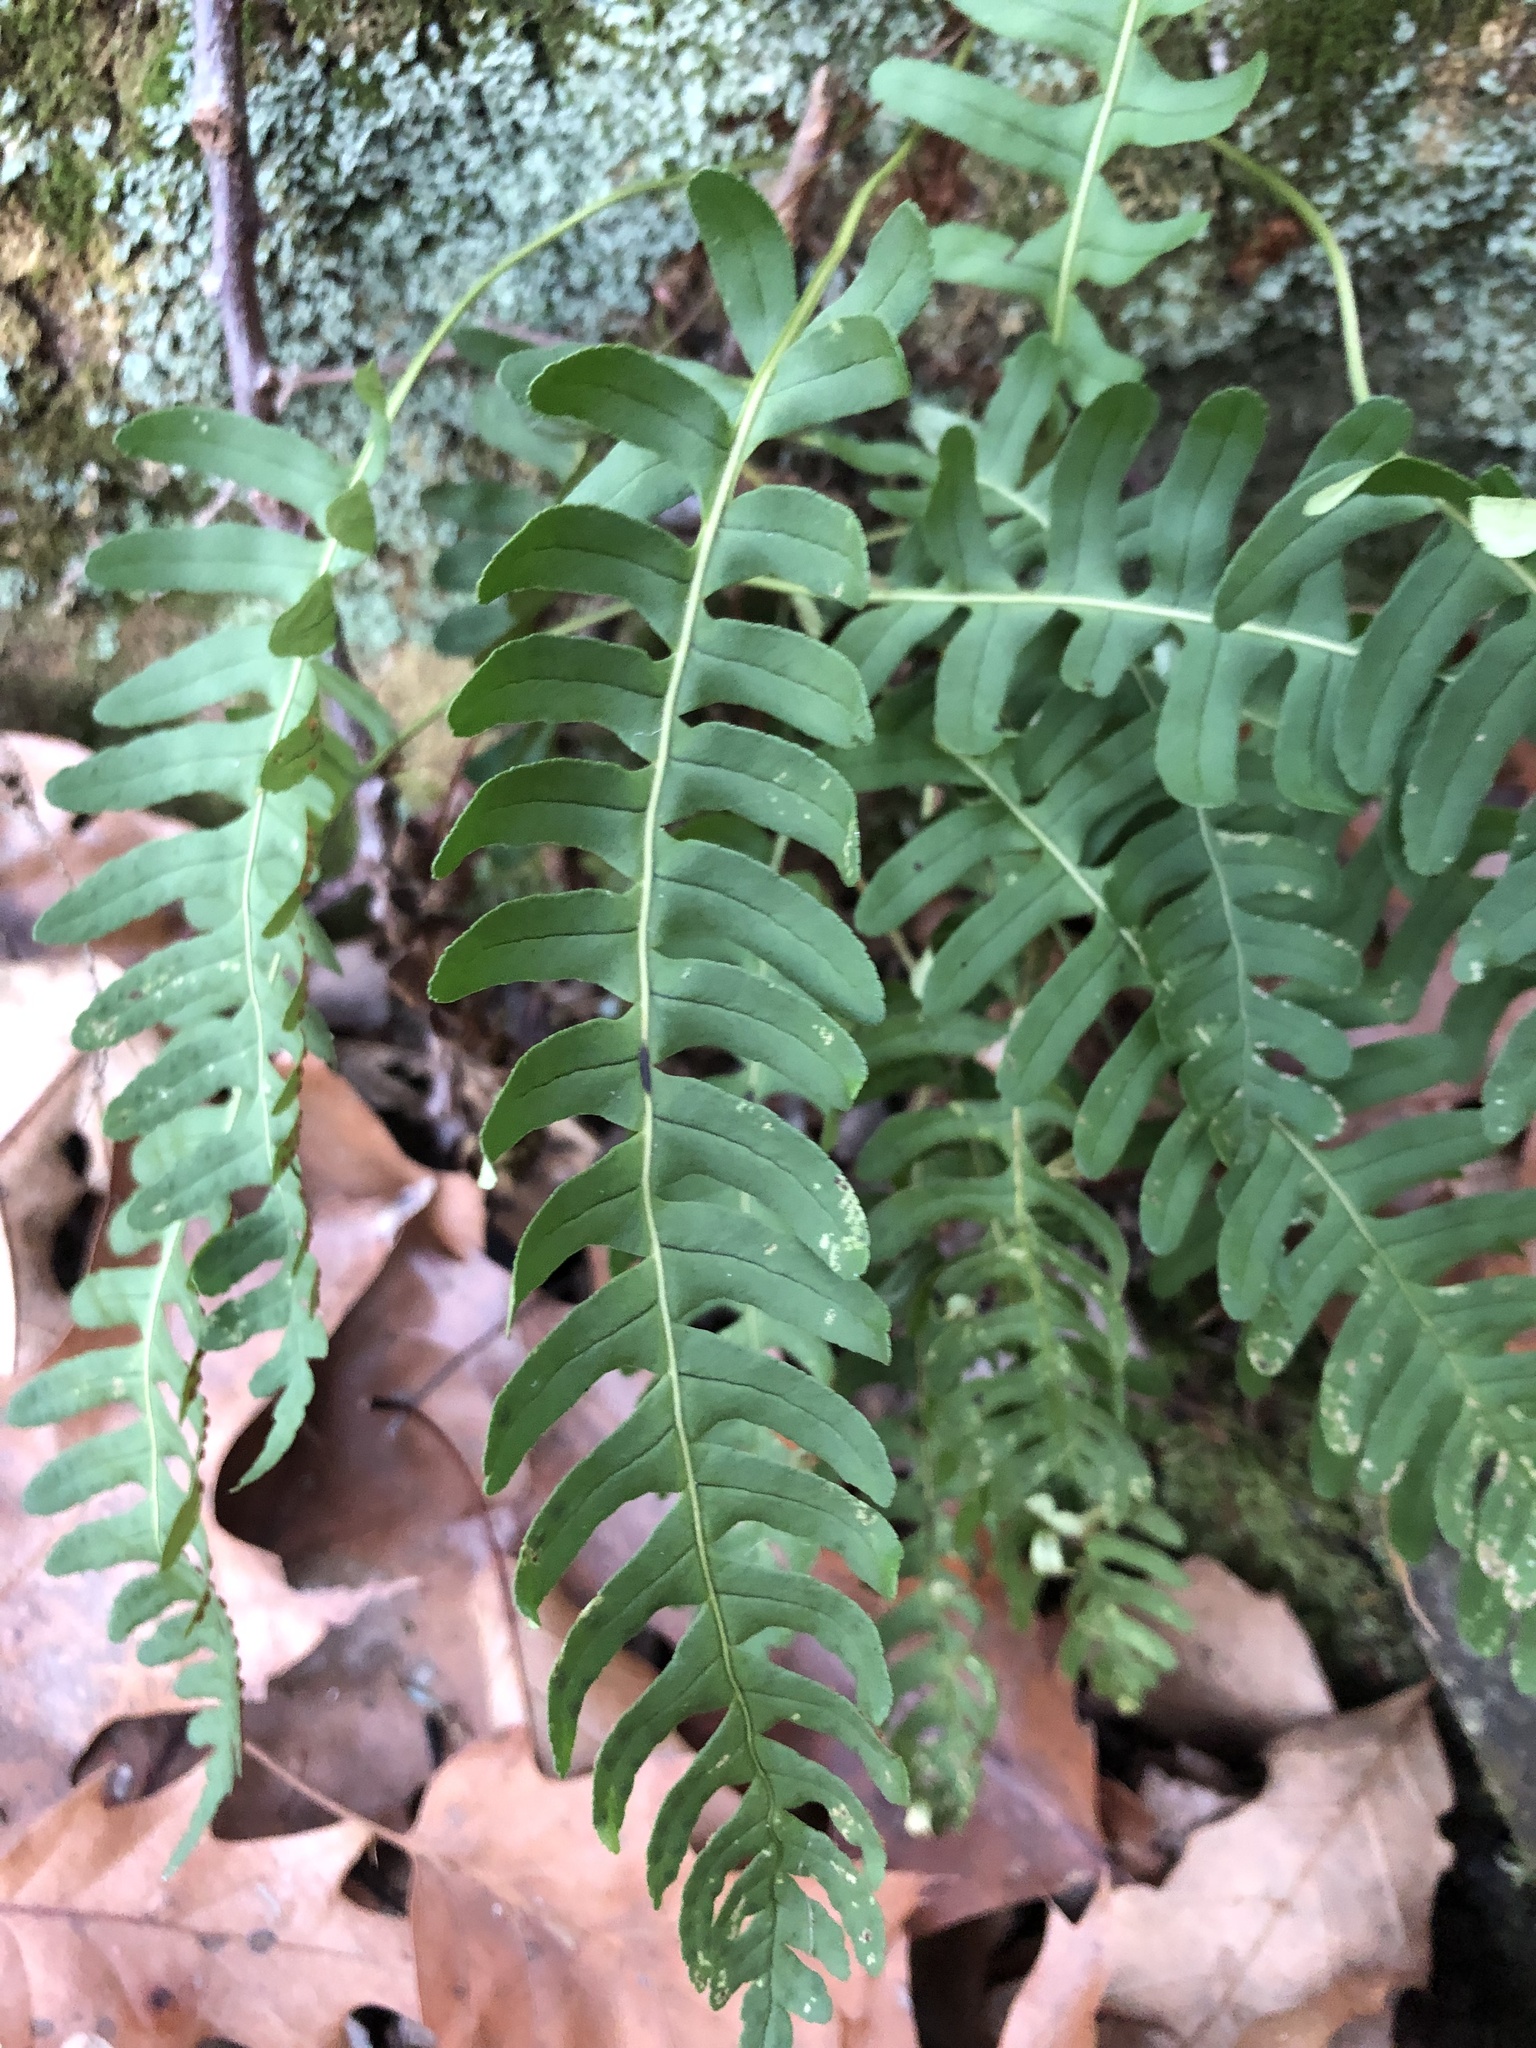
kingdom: Plantae
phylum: Tracheophyta
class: Polypodiopsida
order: Polypodiales
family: Polypodiaceae
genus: Polypodium
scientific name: Polypodium virginianum
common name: American wall fern
